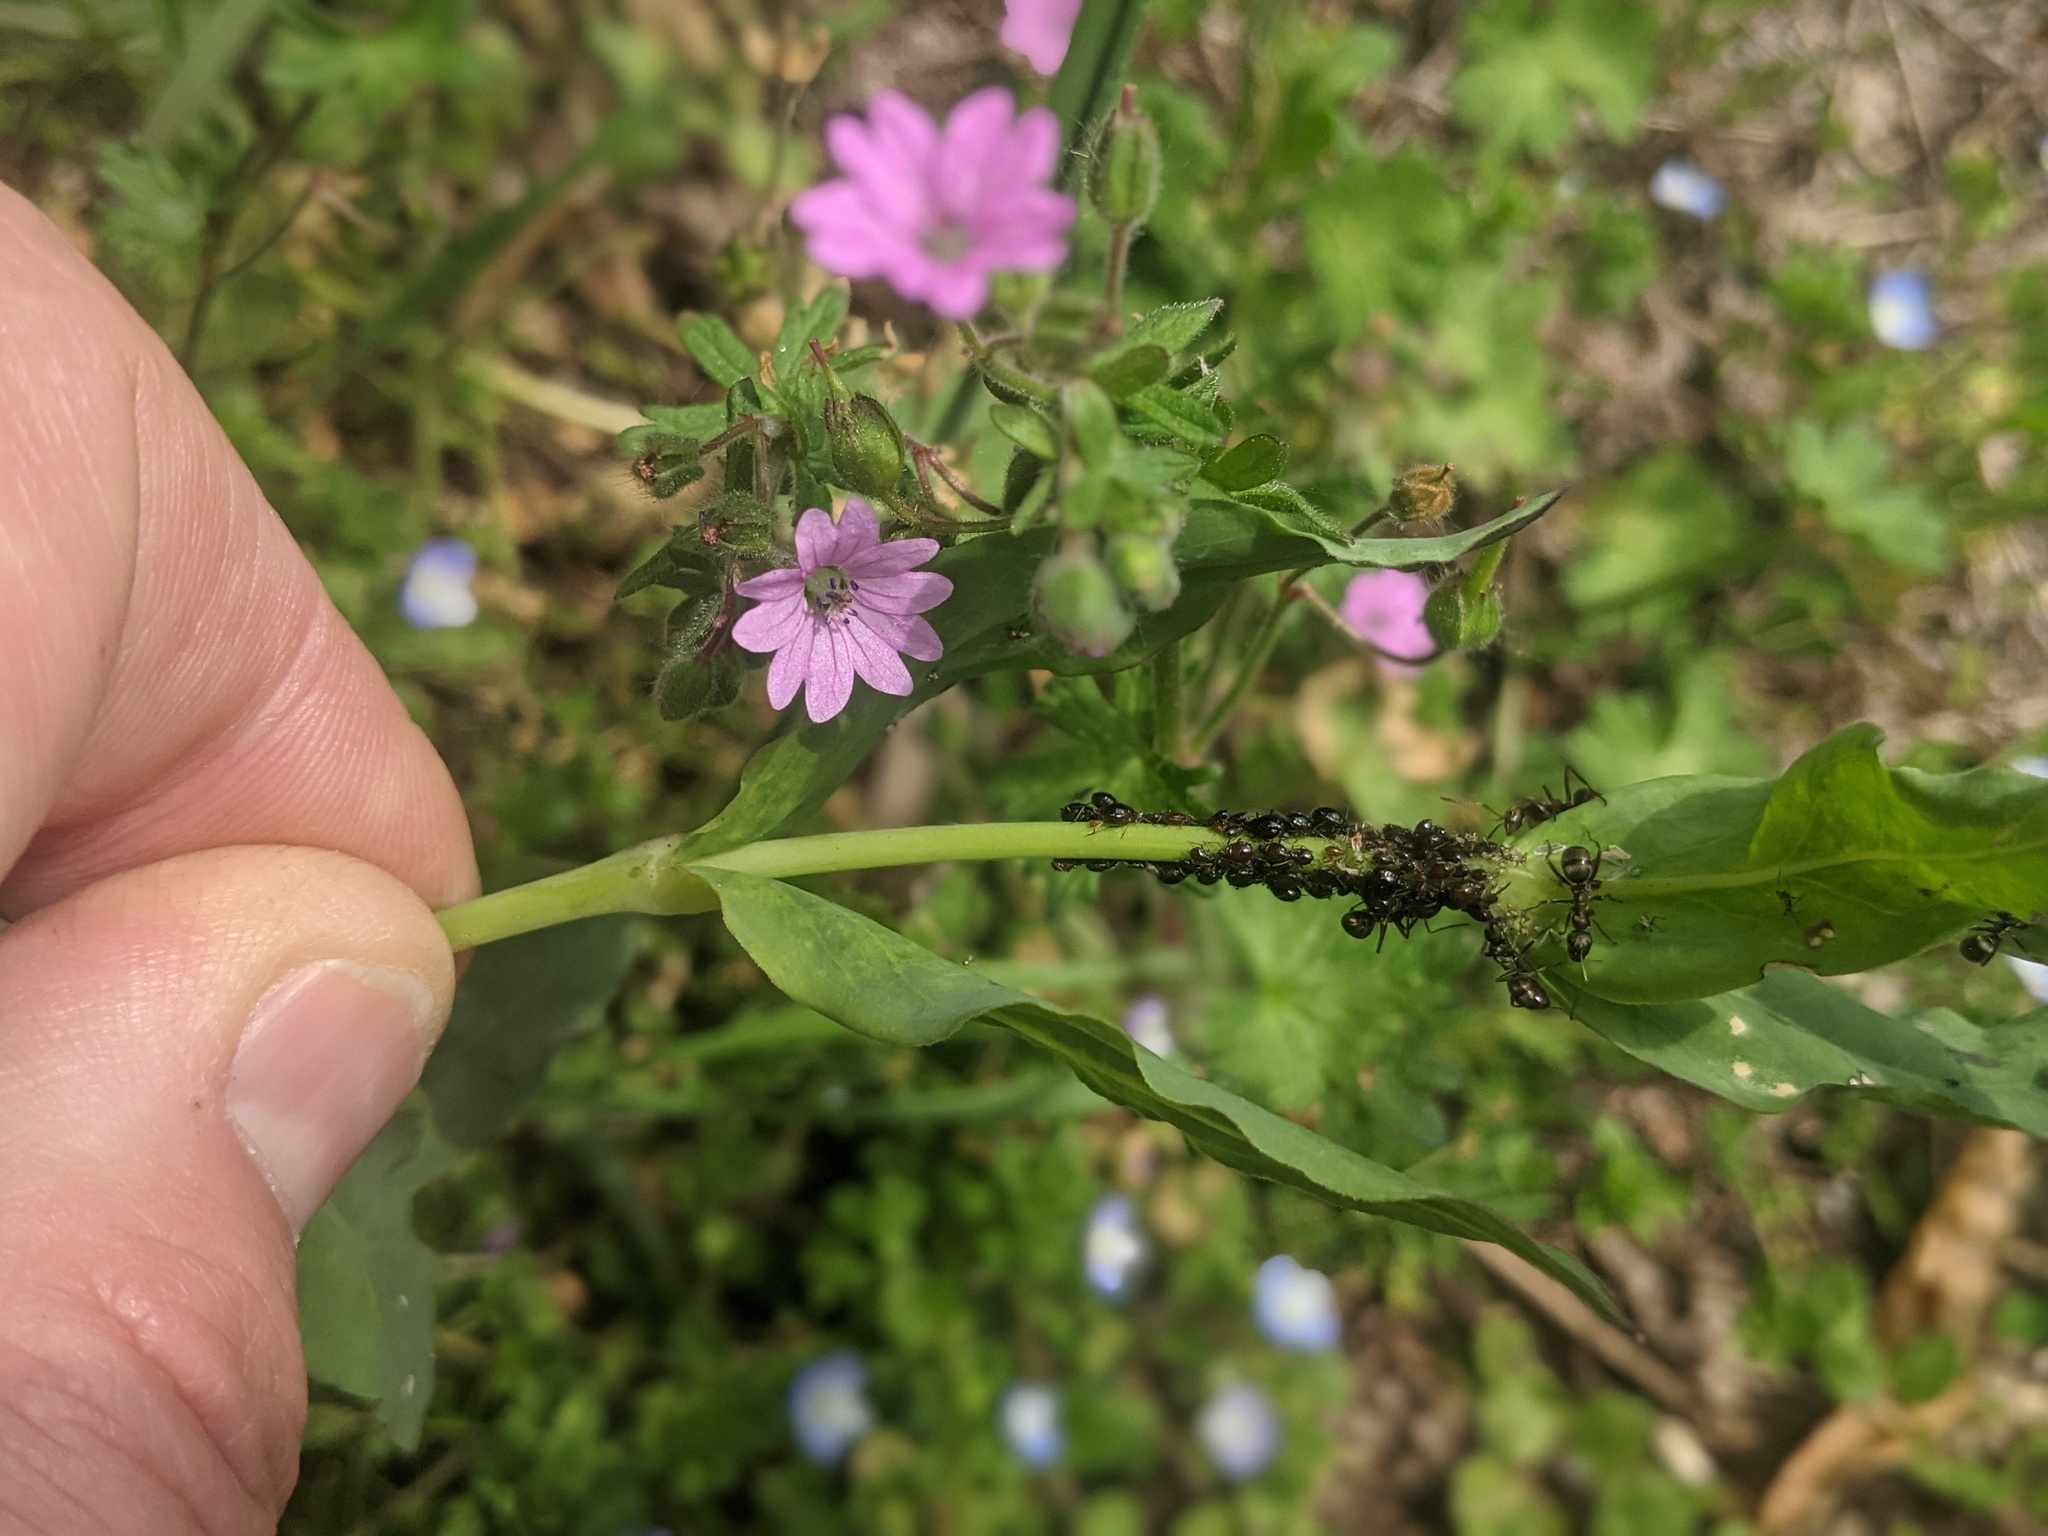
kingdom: Plantae
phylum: Tracheophyta
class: Magnoliopsida
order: Geraniales
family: Geraniaceae
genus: Geranium
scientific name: Geranium molle
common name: Dove's-foot crane's-bill
